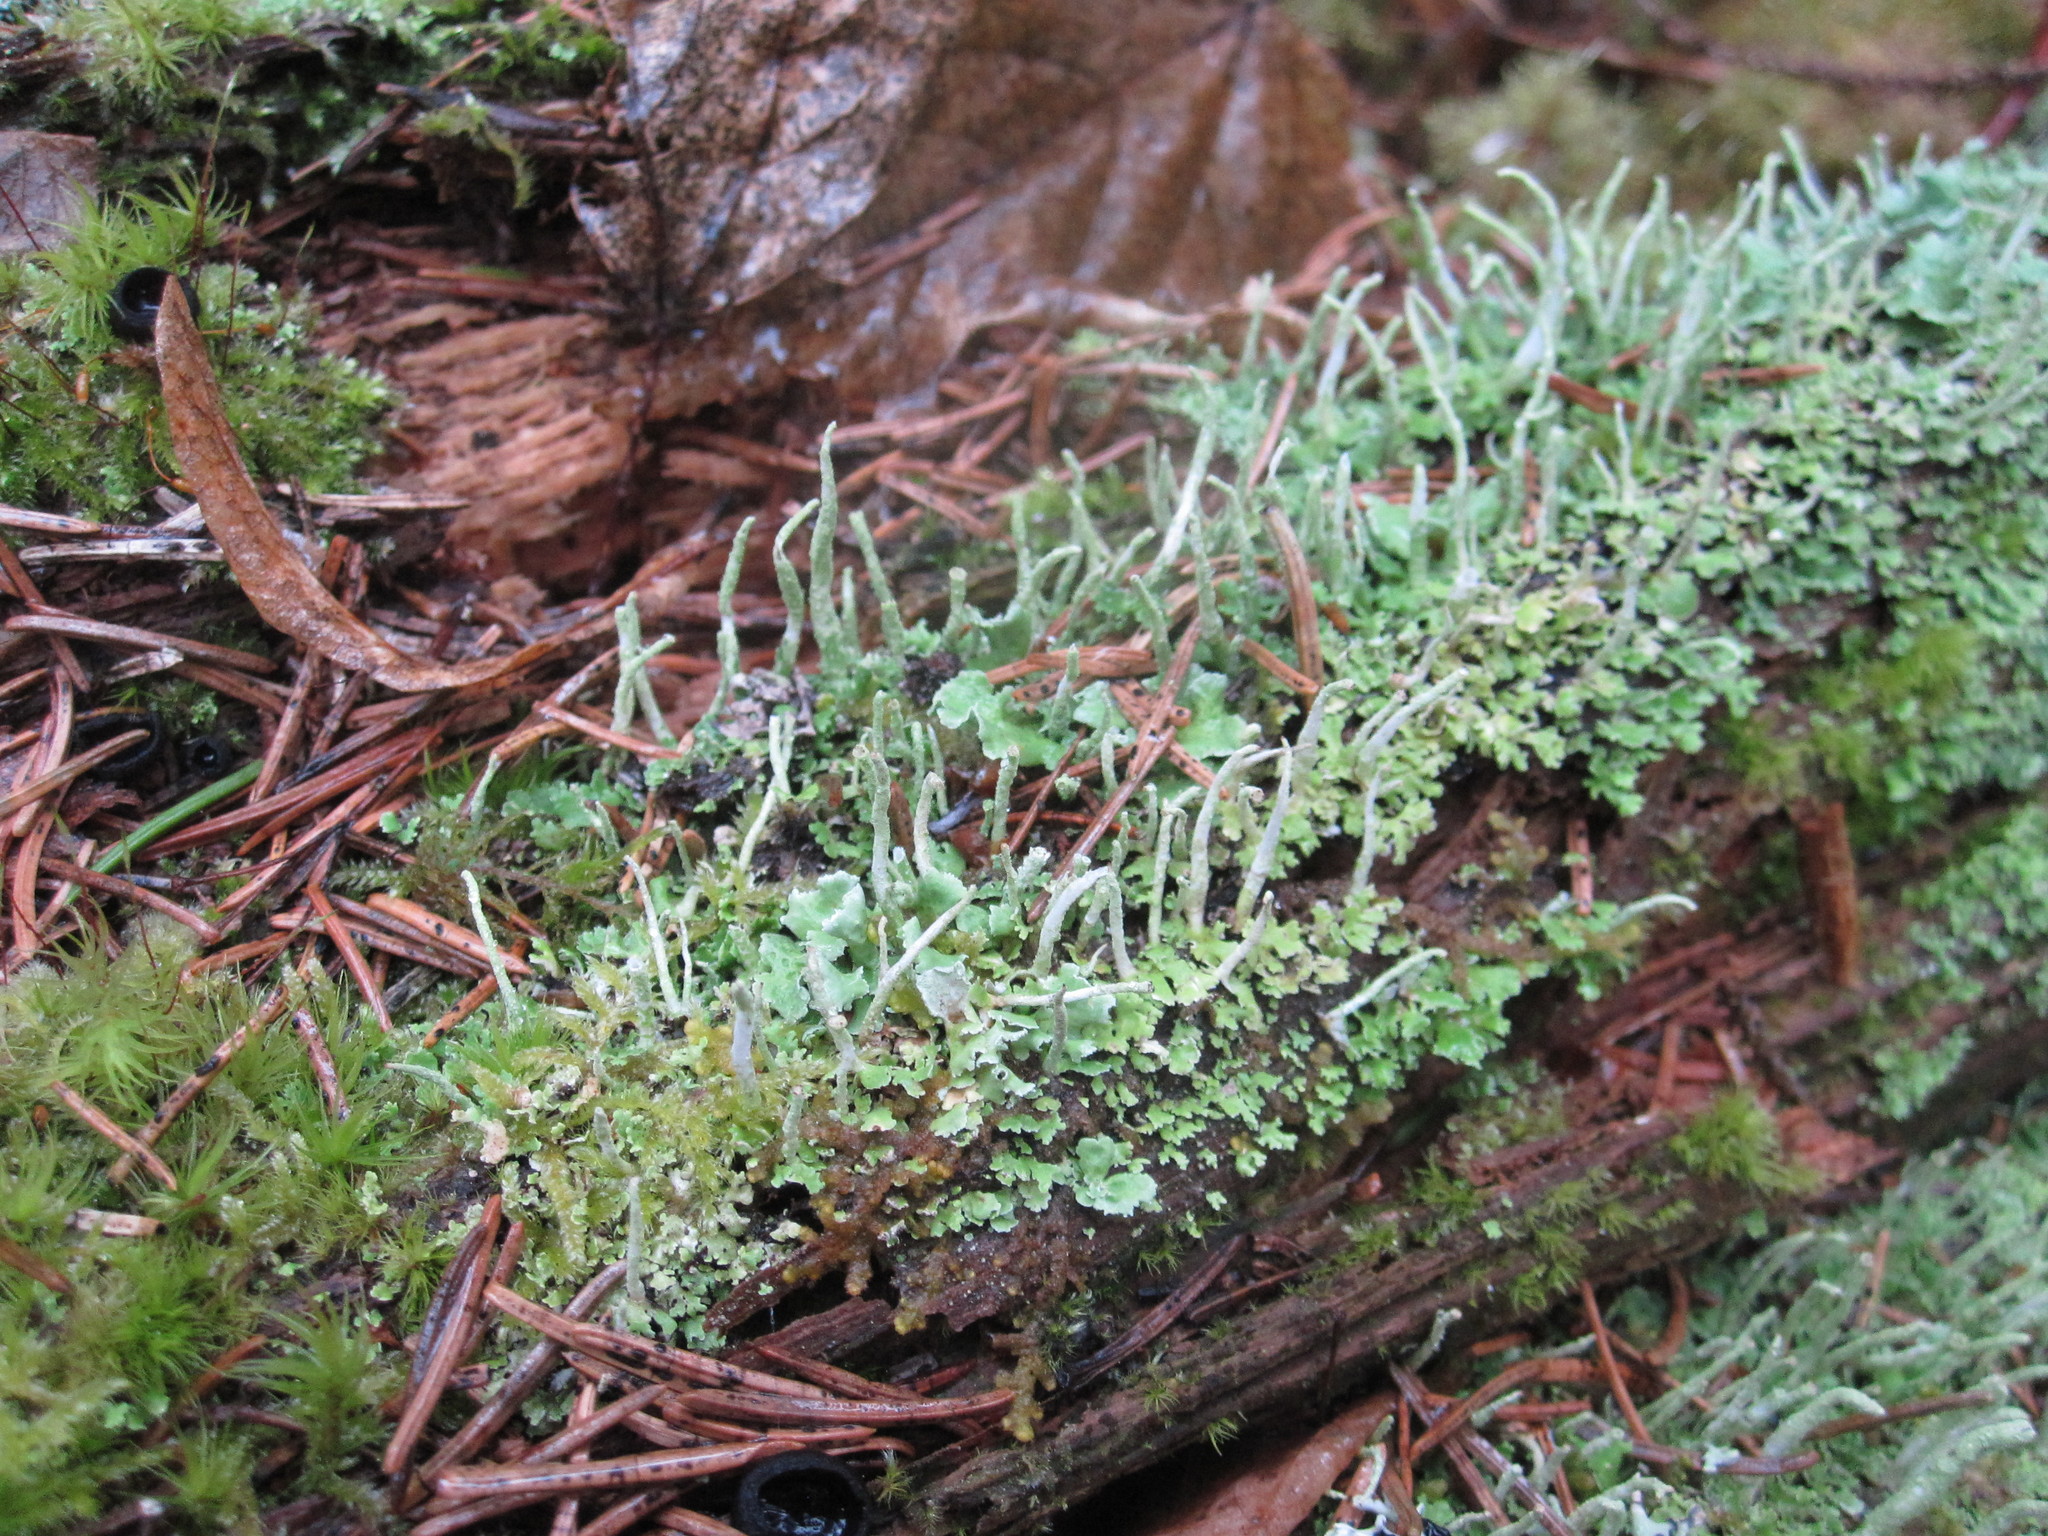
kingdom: Fungi
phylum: Ascomycota
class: Lecanoromycetes
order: Lecanorales
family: Cladoniaceae
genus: Cladonia
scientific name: Cladonia ochrochlora
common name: Smooth-footed powderhorn
